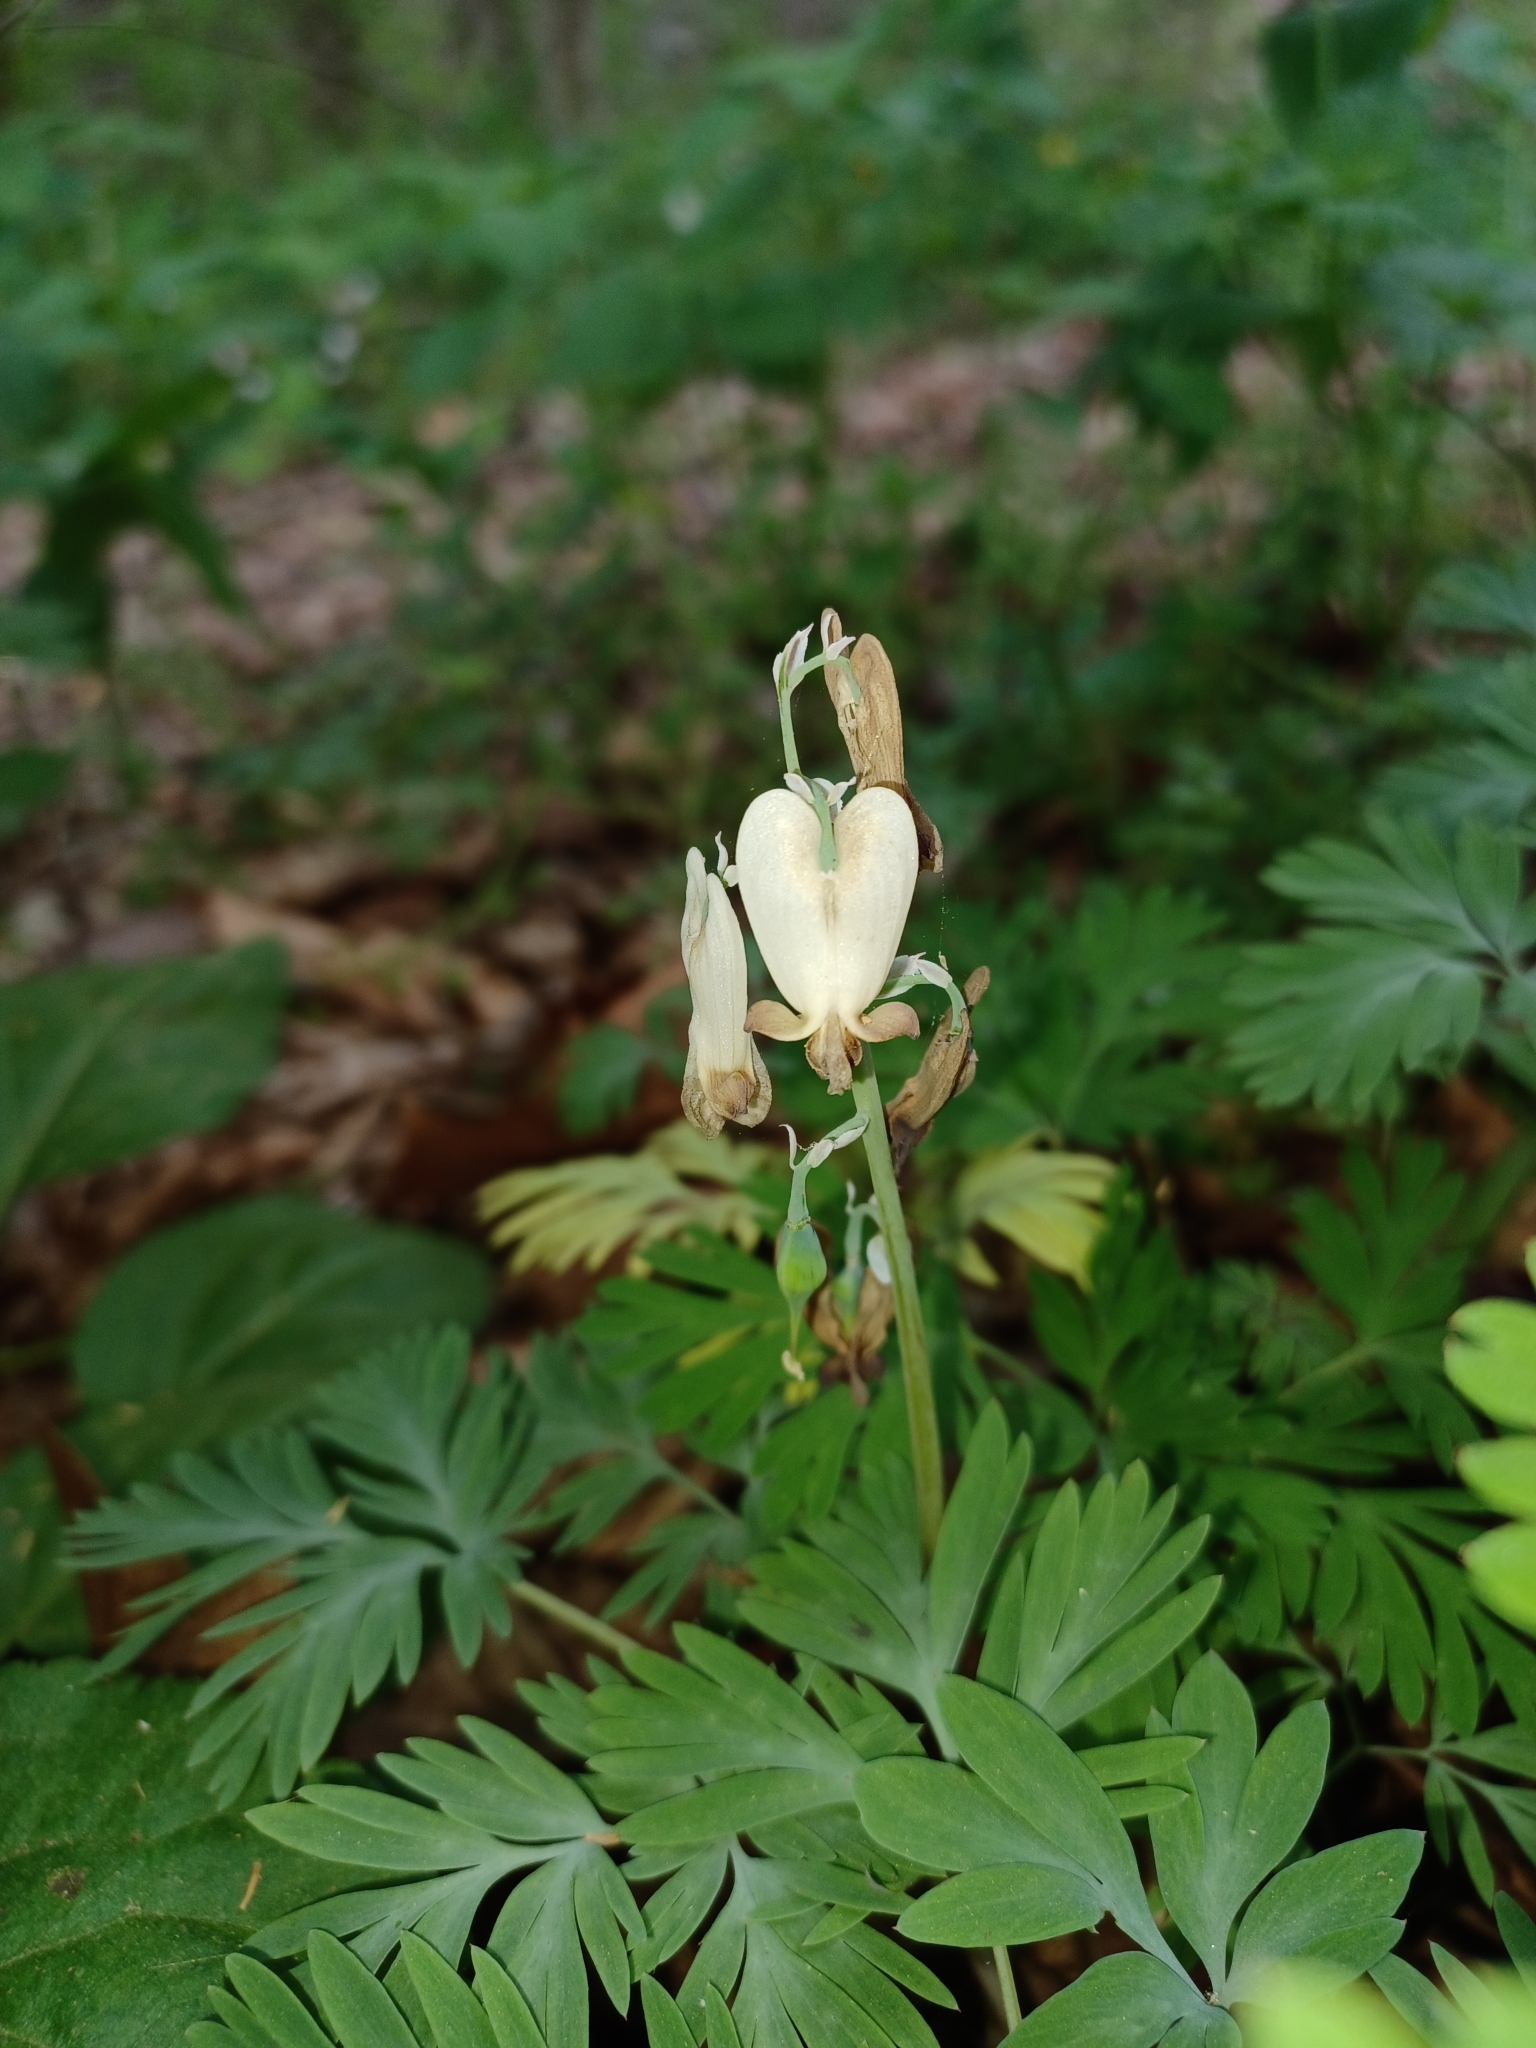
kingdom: Plantae
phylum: Tracheophyta
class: Magnoliopsida
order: Ranunculales
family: Papaveraceae
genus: Dicentra
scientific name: Dicentra canadensis
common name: Squirrel-corn
